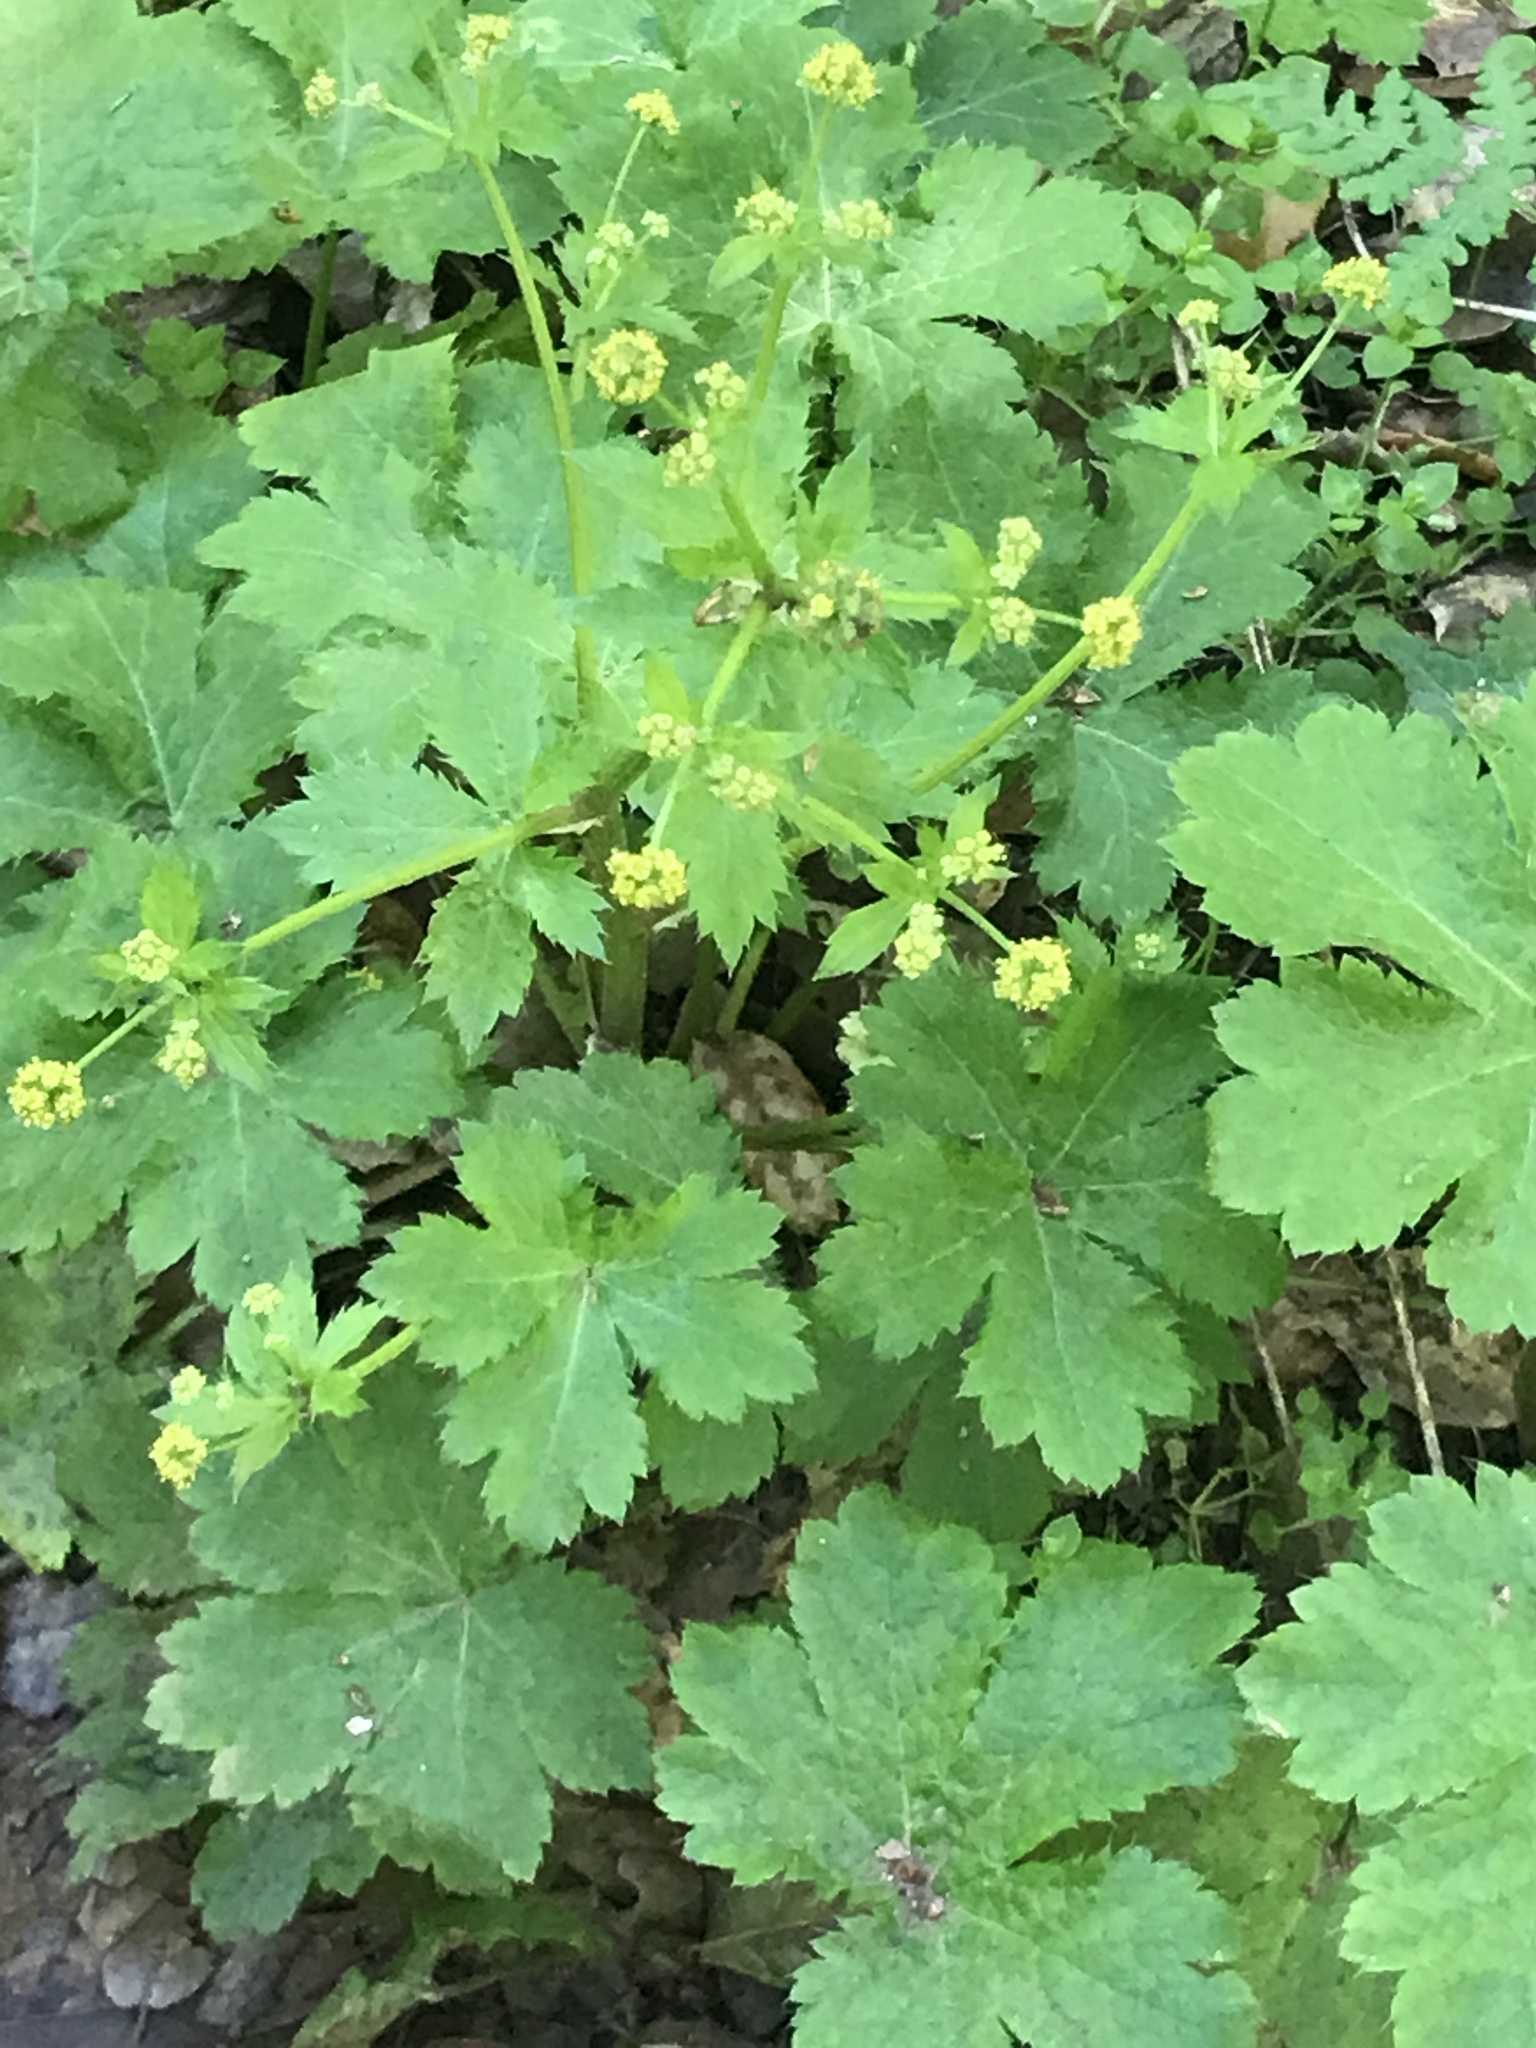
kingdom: Plantae
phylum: Tracheophyta
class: Magnoliopsida
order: Apiales
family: Apiaceae
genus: Sanicula
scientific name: Sanicula crassicaulis
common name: Western snakeroot
